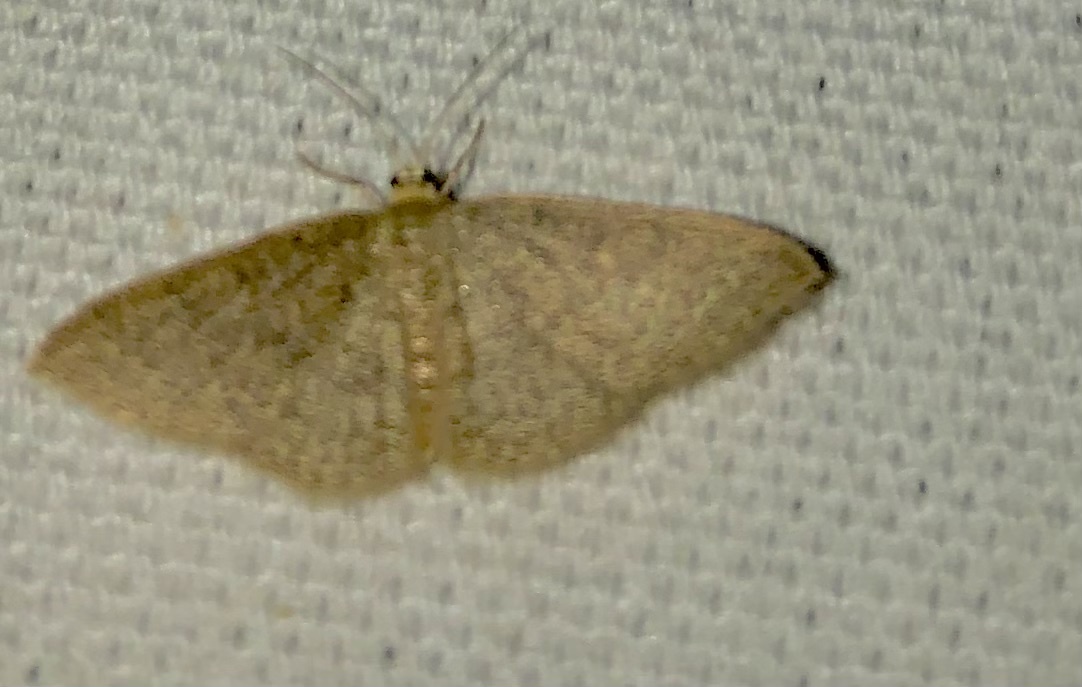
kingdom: Animalia
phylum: Arthropoda
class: Insecta
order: Lepidoptera
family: Geometridae
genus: Pleuroprucha
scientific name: Pleuroprucha insulsaria
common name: Common tan wave
